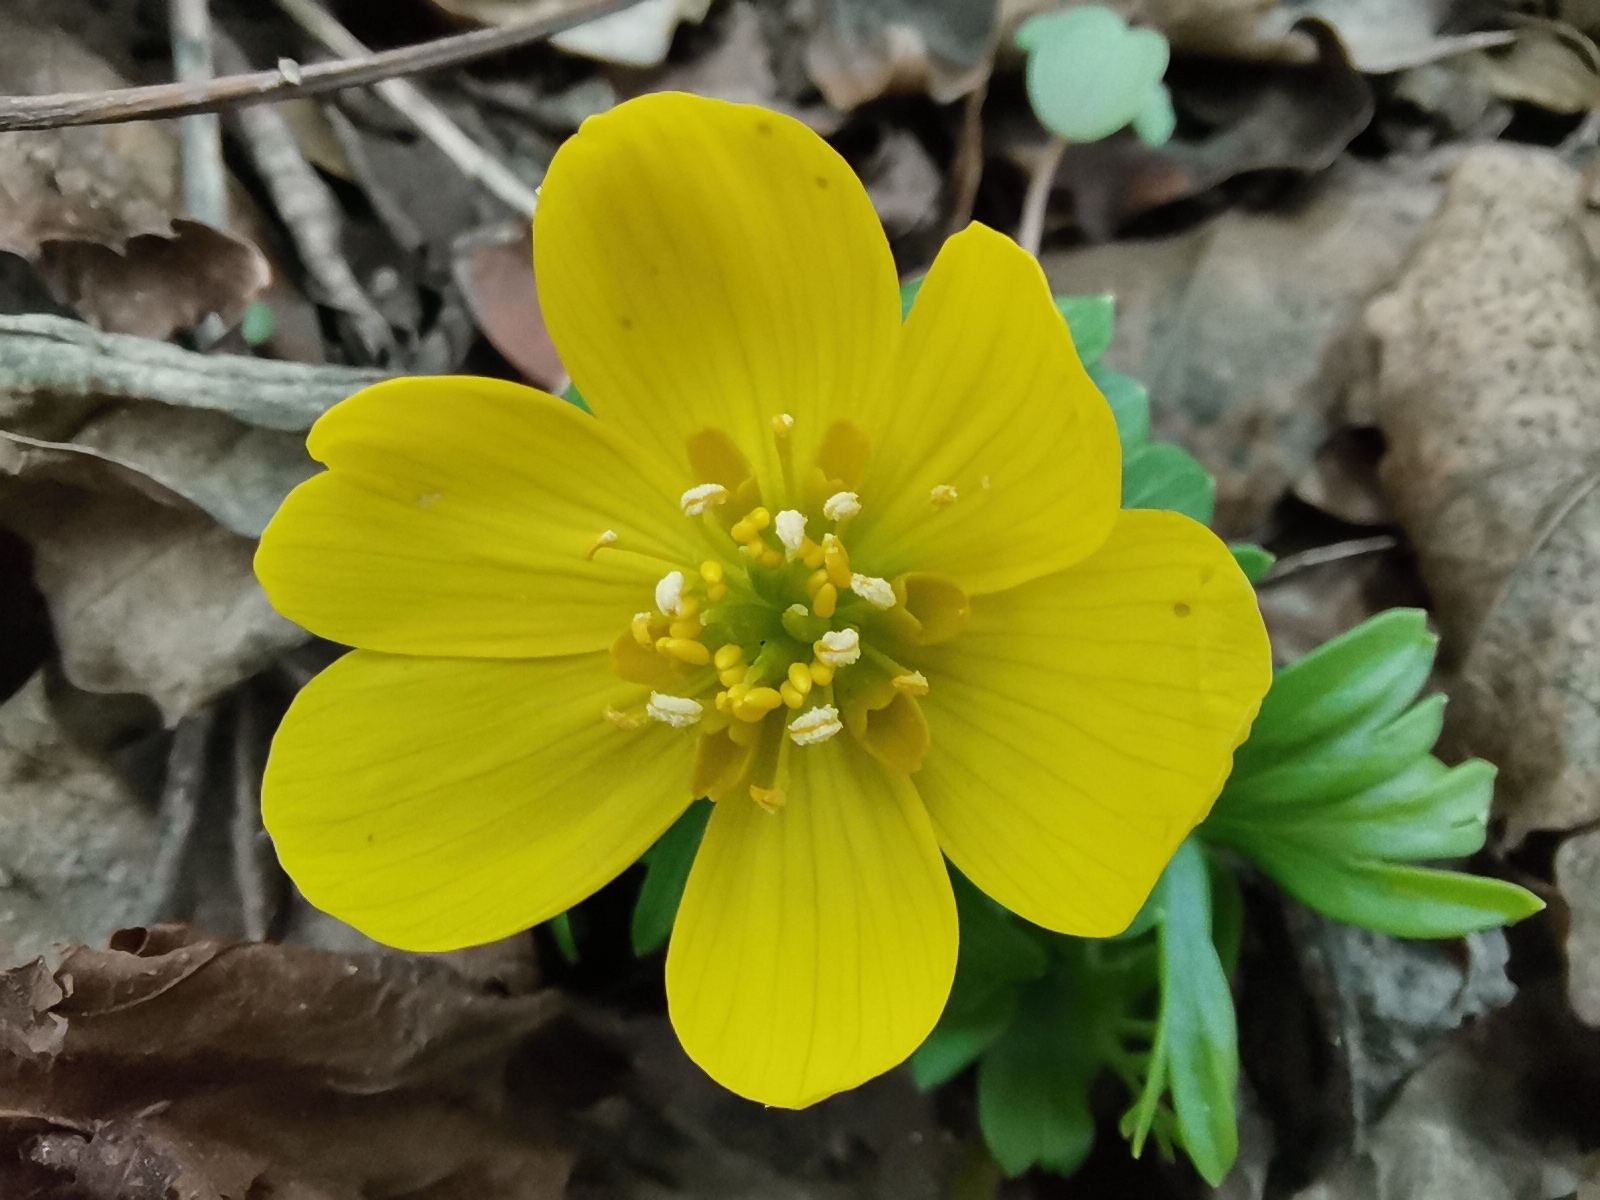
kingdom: Plantae
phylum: Tracheophyta
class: Magnoliopsida
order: Ranunculales
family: Ranunculaceae
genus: Eranthis
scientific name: Eranthis hyemalis
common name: Winter aconite
